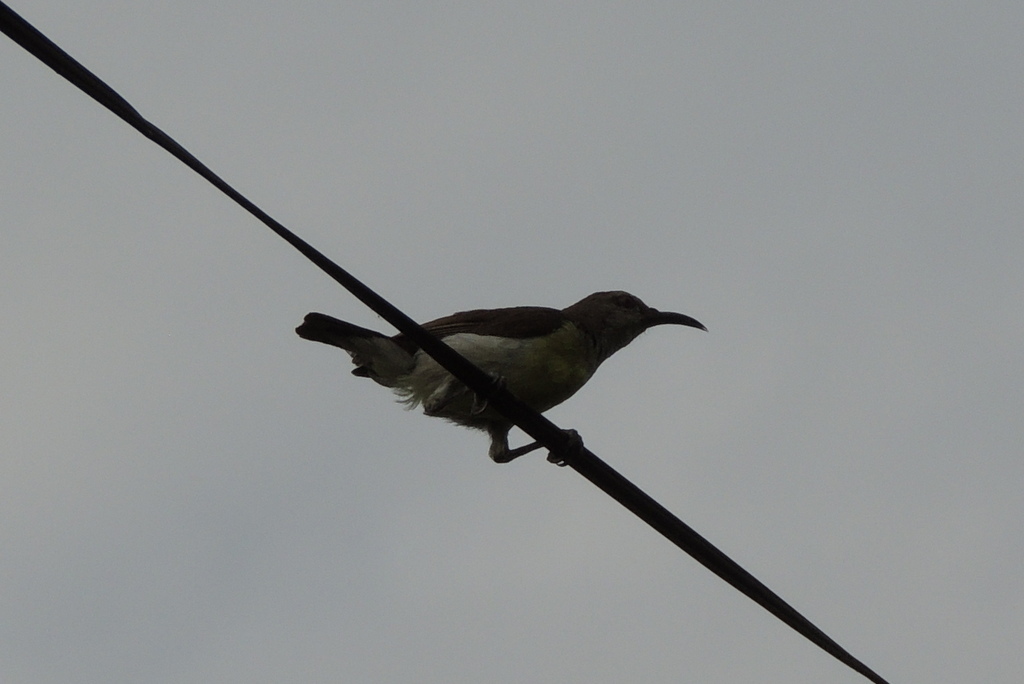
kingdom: Animalia
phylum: Chordata
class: Aves
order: Passeriformes
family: Nectariniidae
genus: Leptocoma
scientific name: Leptocoma zeylonica
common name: Purple-rumped sunbird
